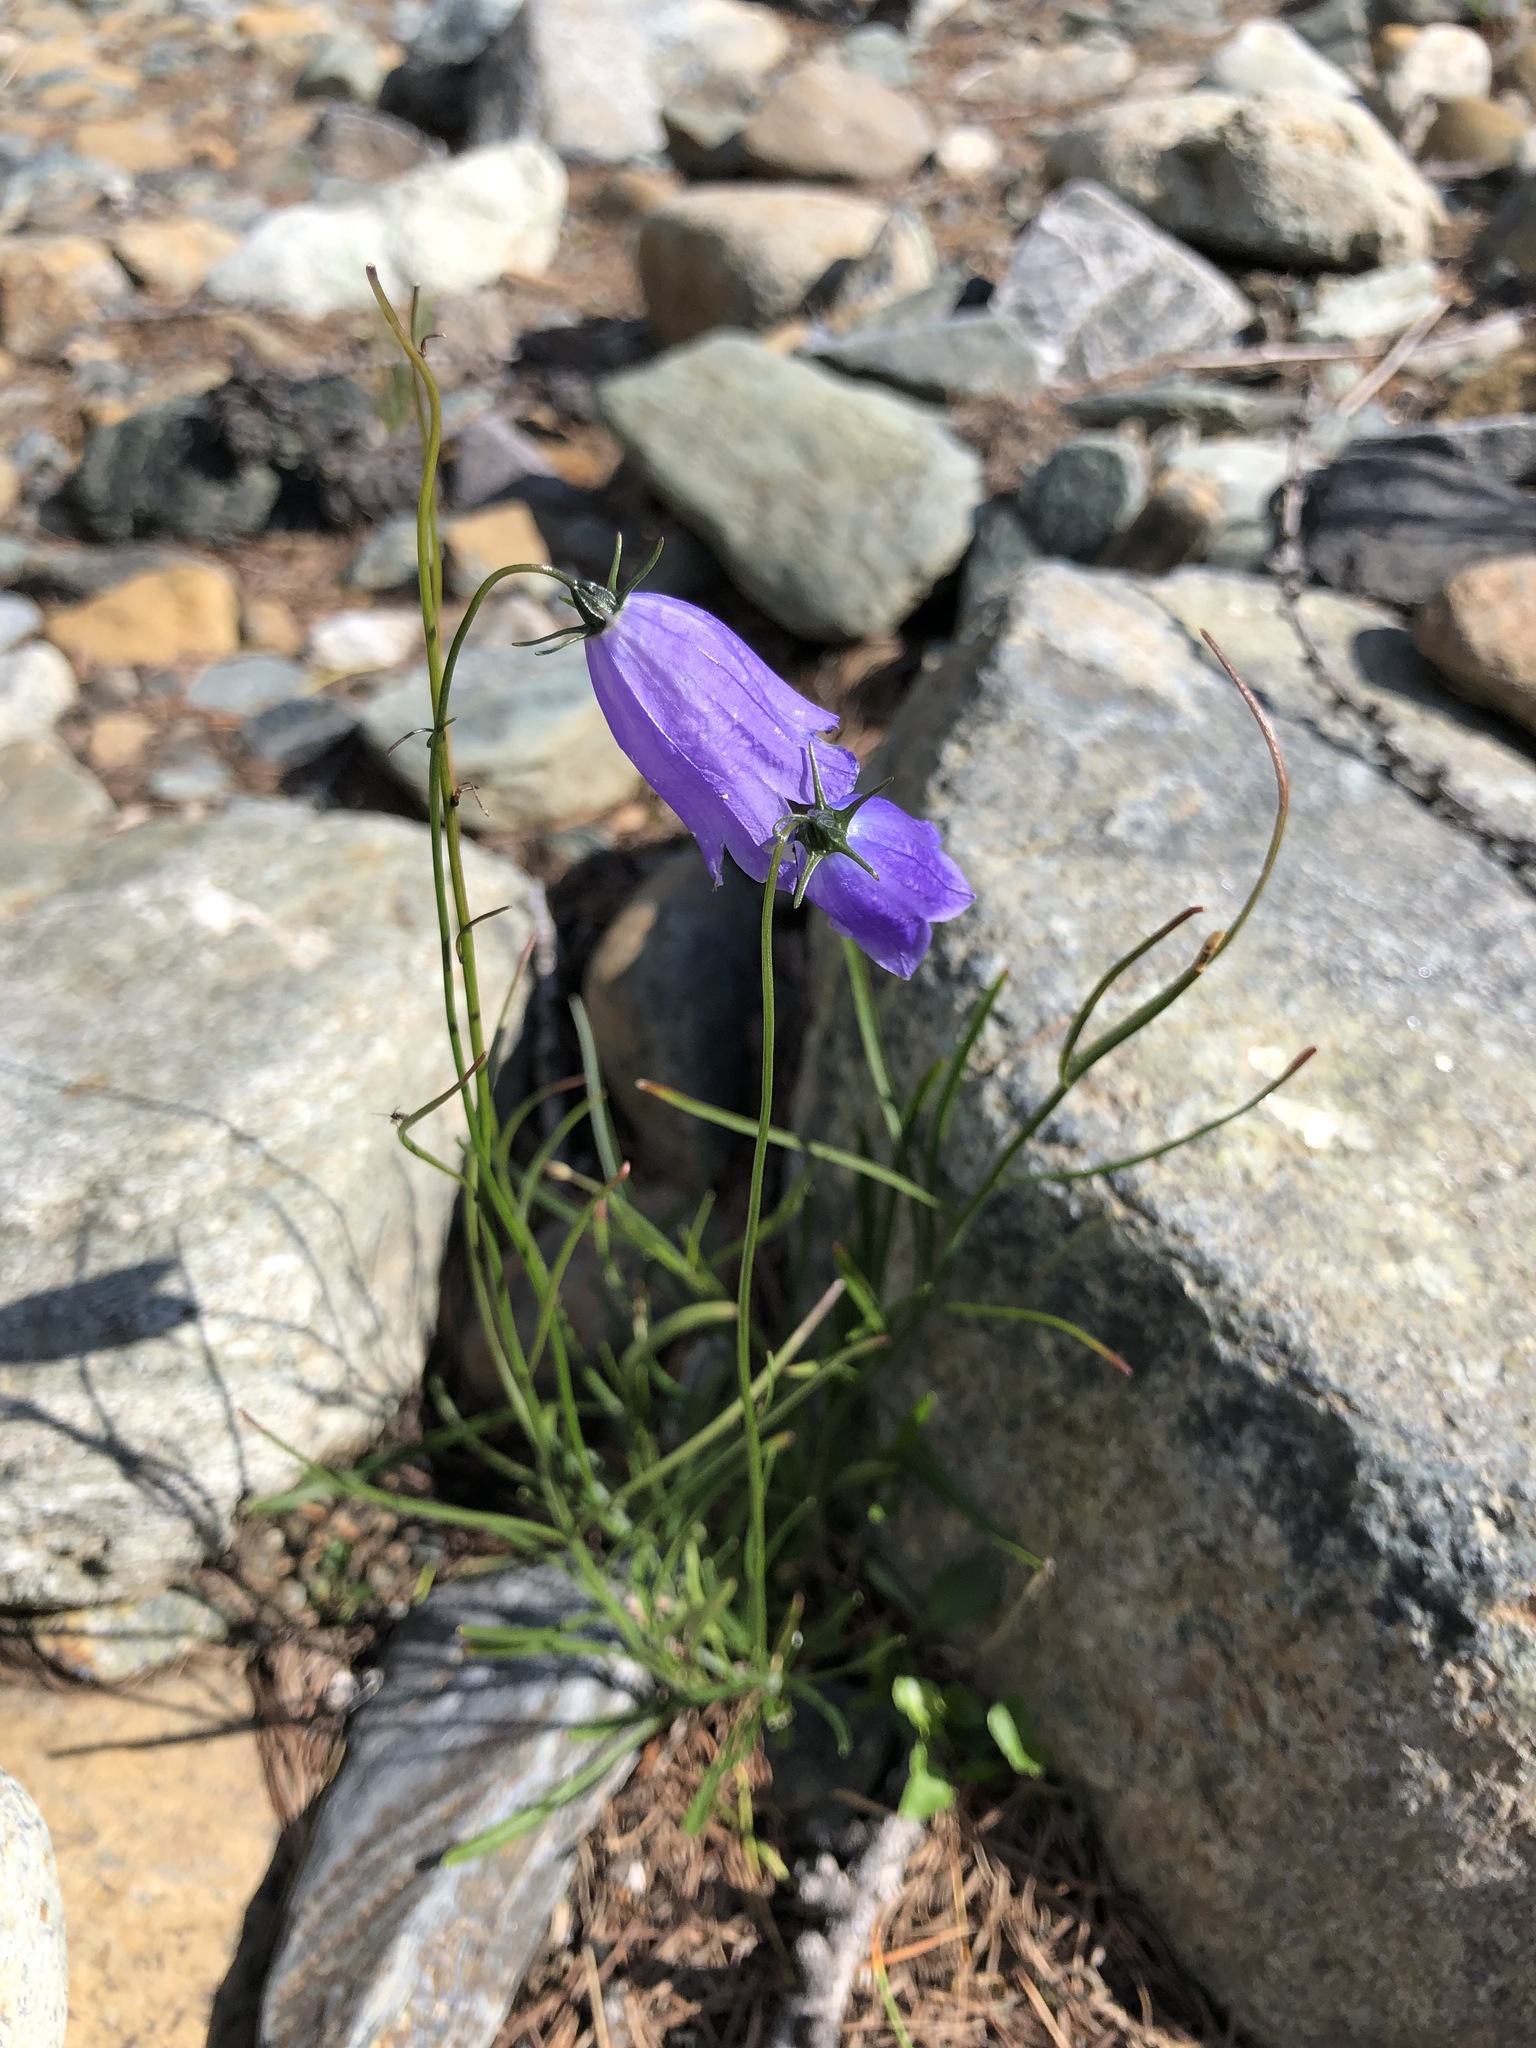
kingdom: Plantae
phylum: Tracheophyta
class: Magnoliopsida
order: Asterales
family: Campanulaceae
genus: Campanula
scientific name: Campanula rotundifolia
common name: Harebell
